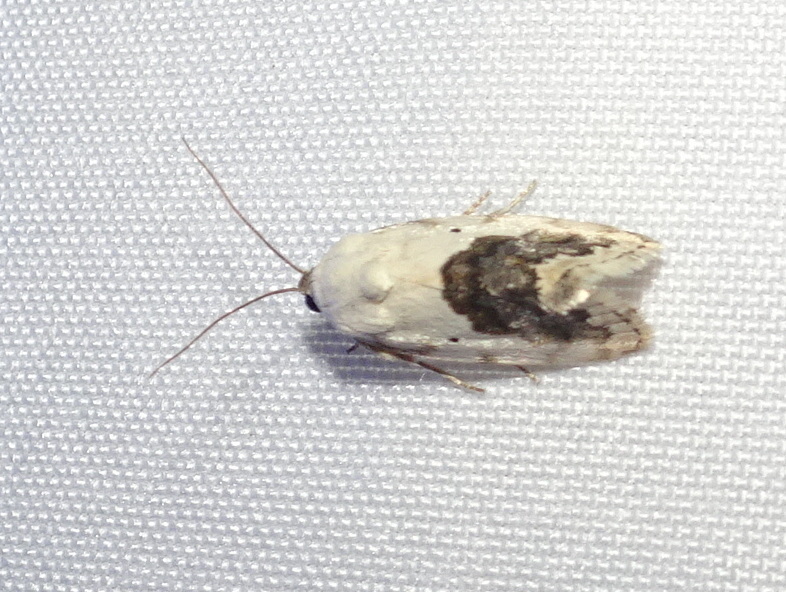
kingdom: Animalia
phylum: Arthropoda
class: Insecta
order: Lepidoptera
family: Noctuidae
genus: Acontia
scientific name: Acontia erastrioides
